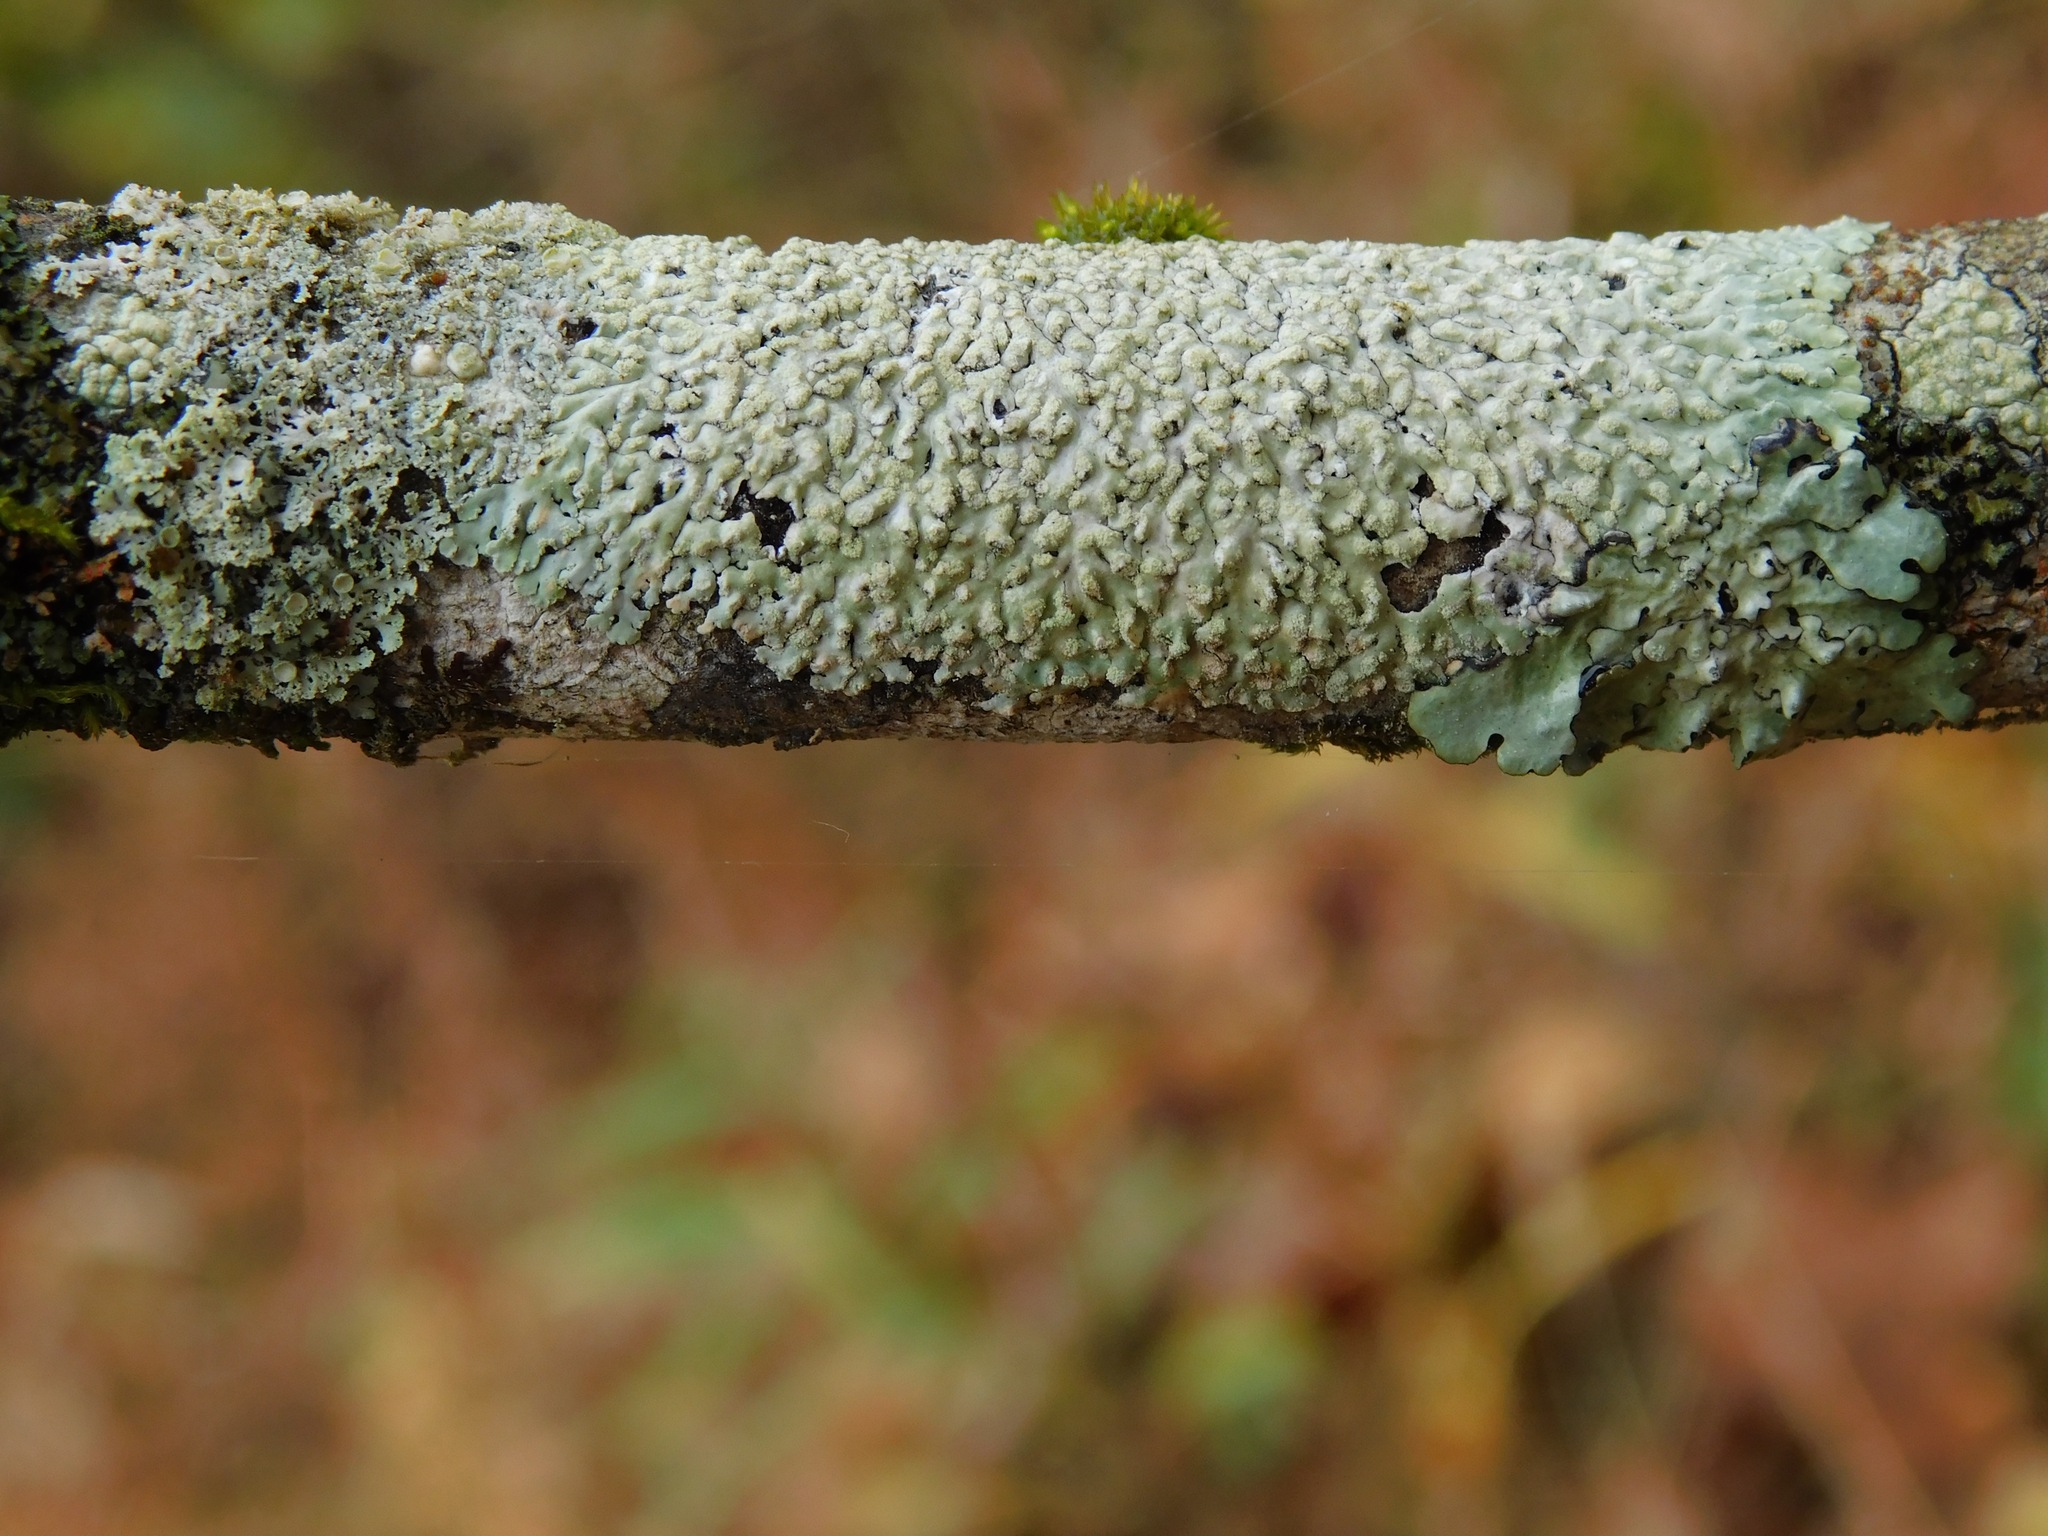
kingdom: Fungi
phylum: Ascomycota
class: Lecanoromycetes
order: Caliciales
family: Physciaceae
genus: Physcia
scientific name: Physcia americana
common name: American rosette lichen
